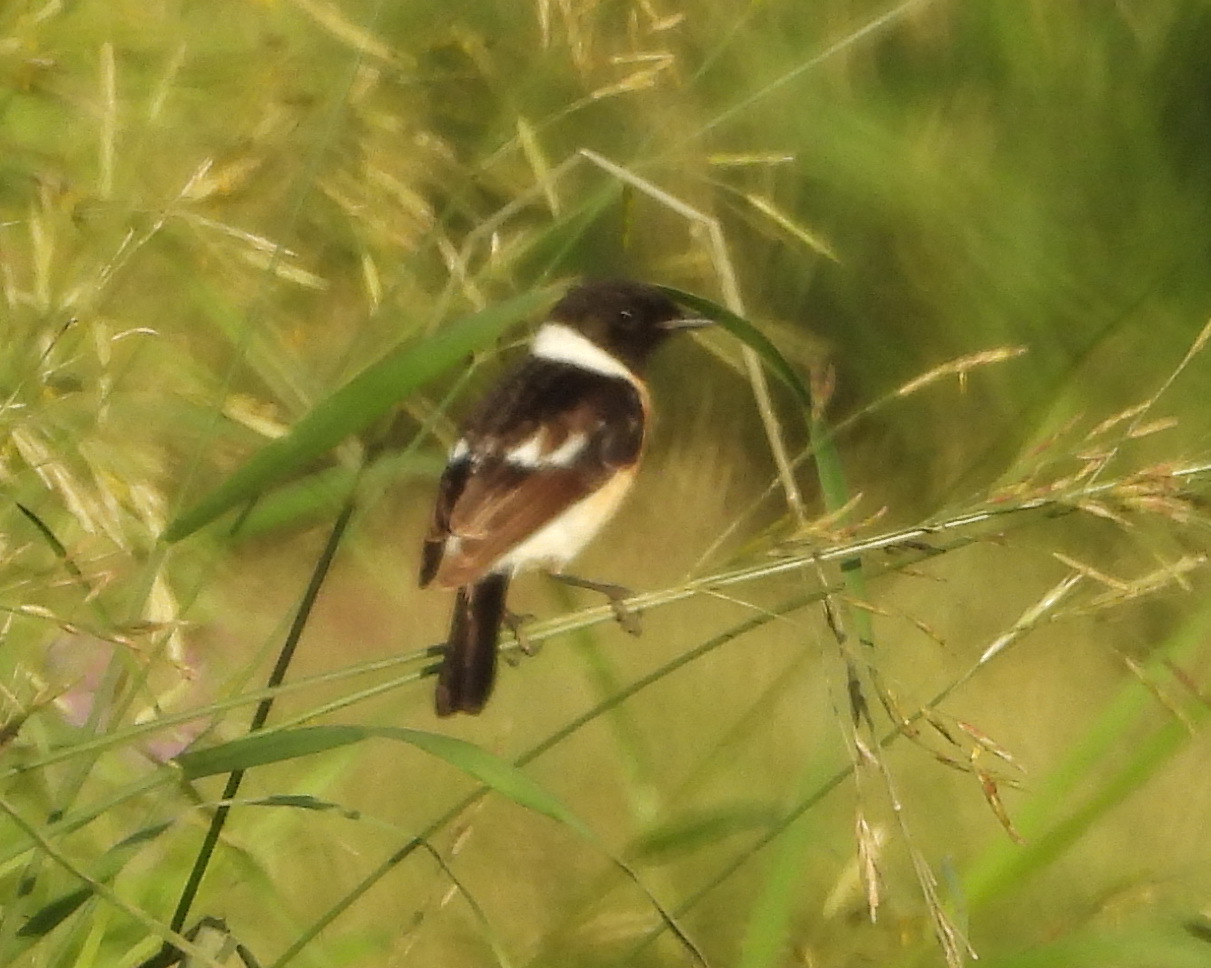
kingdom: Animalia
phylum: Chordata
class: Aves
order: Passeriformes
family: Muscicapidae
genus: Saxicola
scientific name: Saxicola maurus
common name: Siberian stonechat
